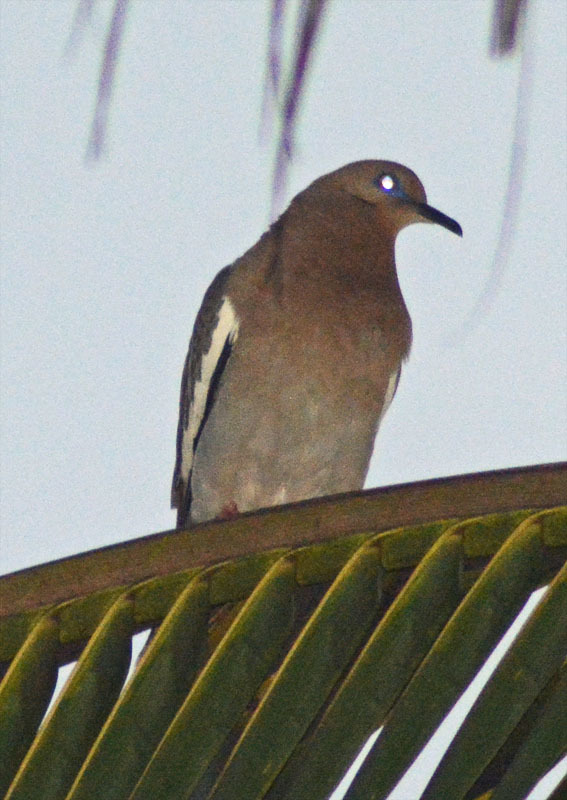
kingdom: Animalia
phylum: Chordata
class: Aves
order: Columbiformes
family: Columbidae
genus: Zenaida
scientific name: Zenaida asiatica
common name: White-winged dove
